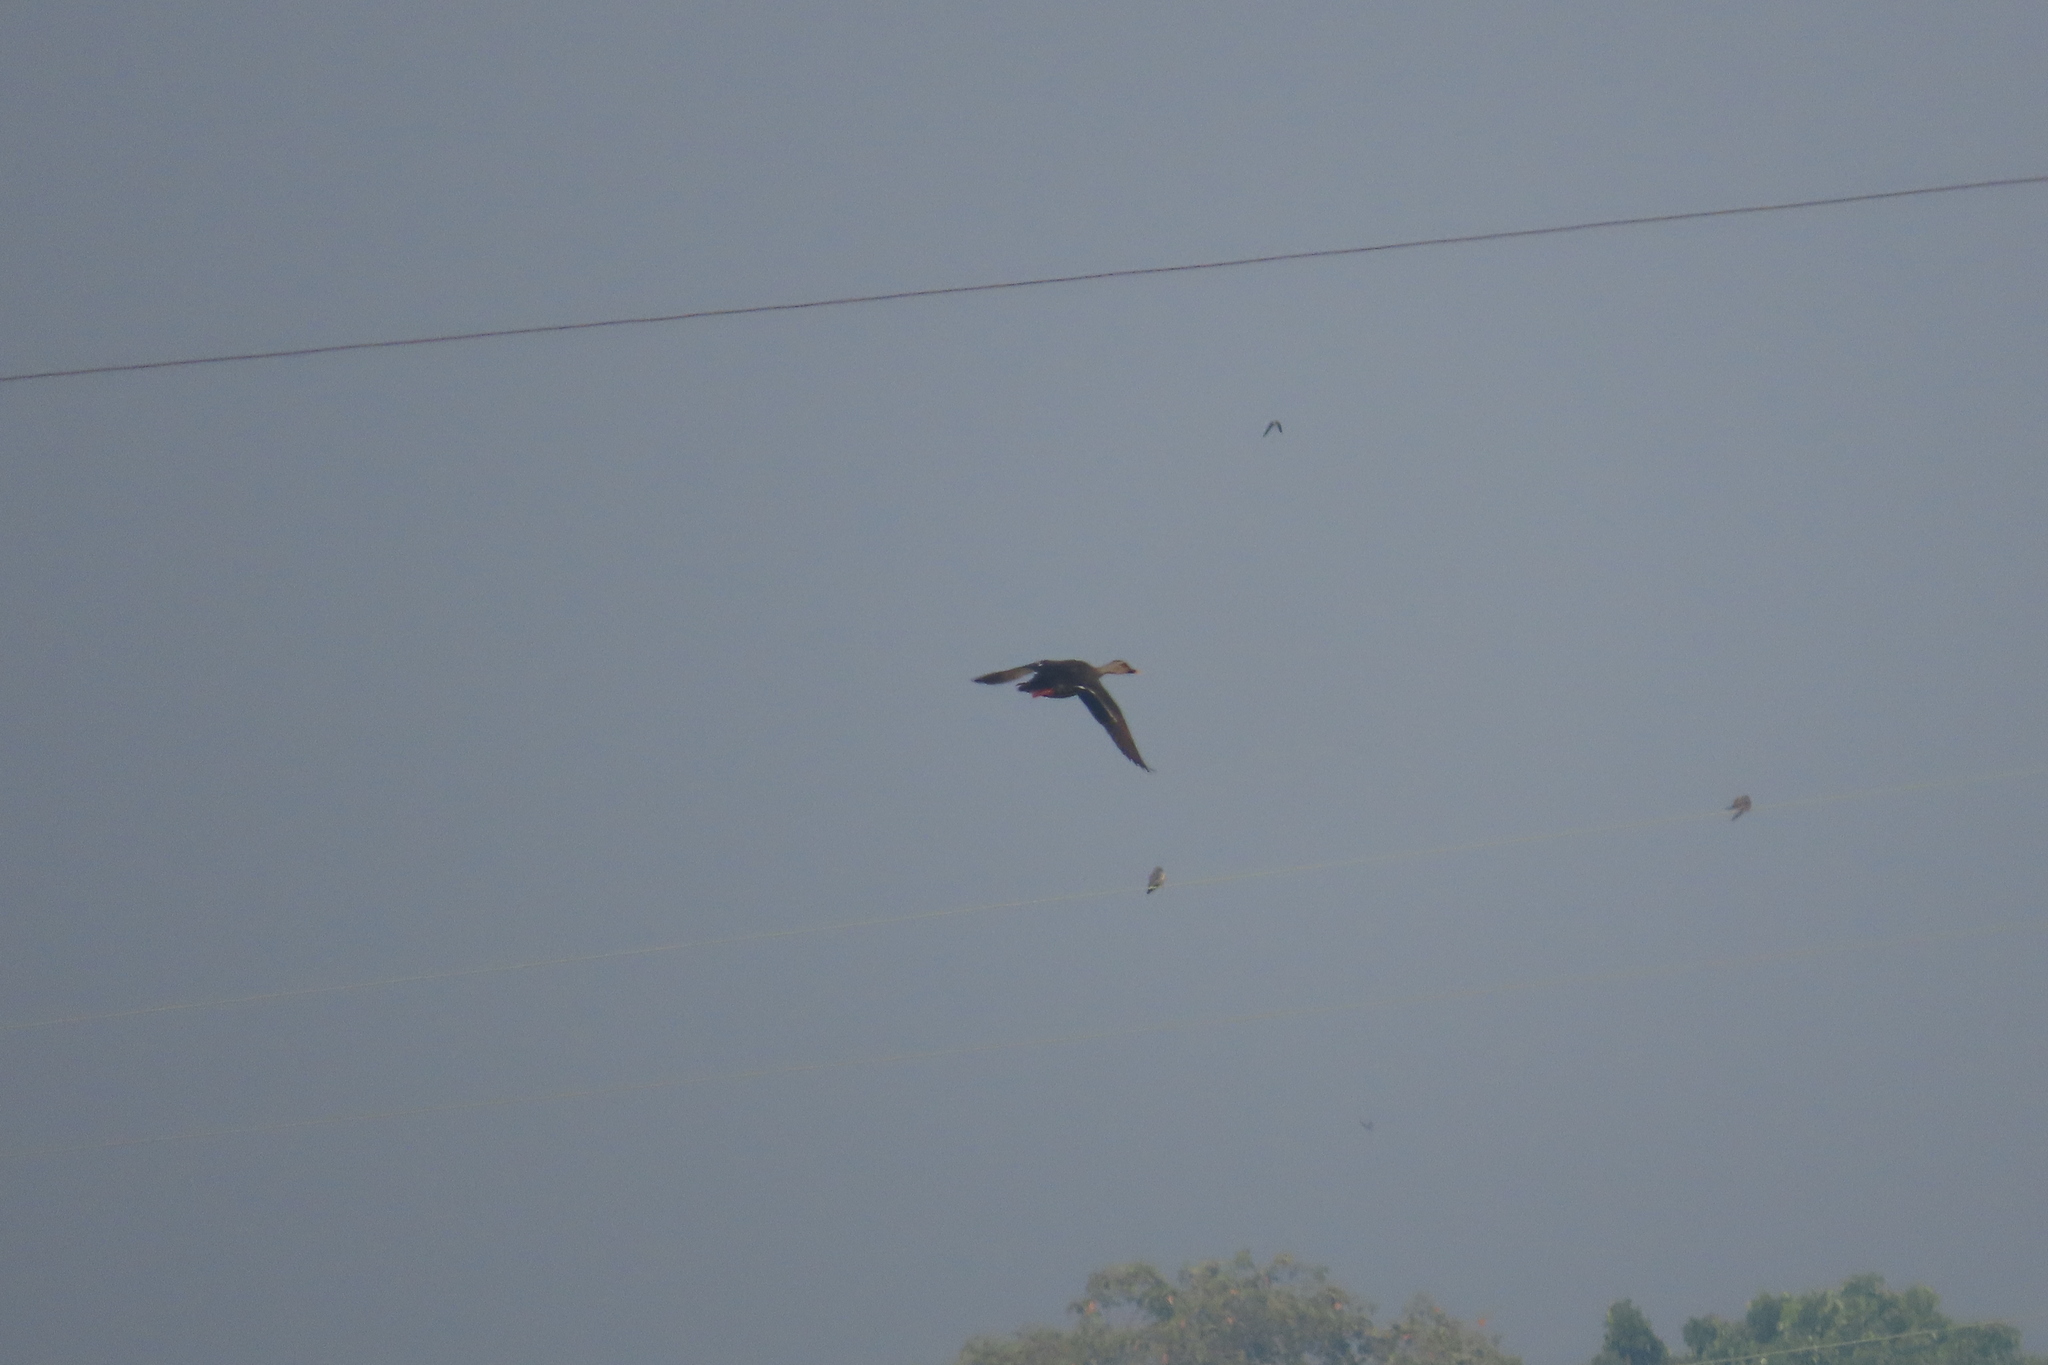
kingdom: Animalia
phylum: Chordata
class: Aves
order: Anseriformes
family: Anatidae
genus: Anas
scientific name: Anas poecilorhyncha
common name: Indian spot-billed duck
